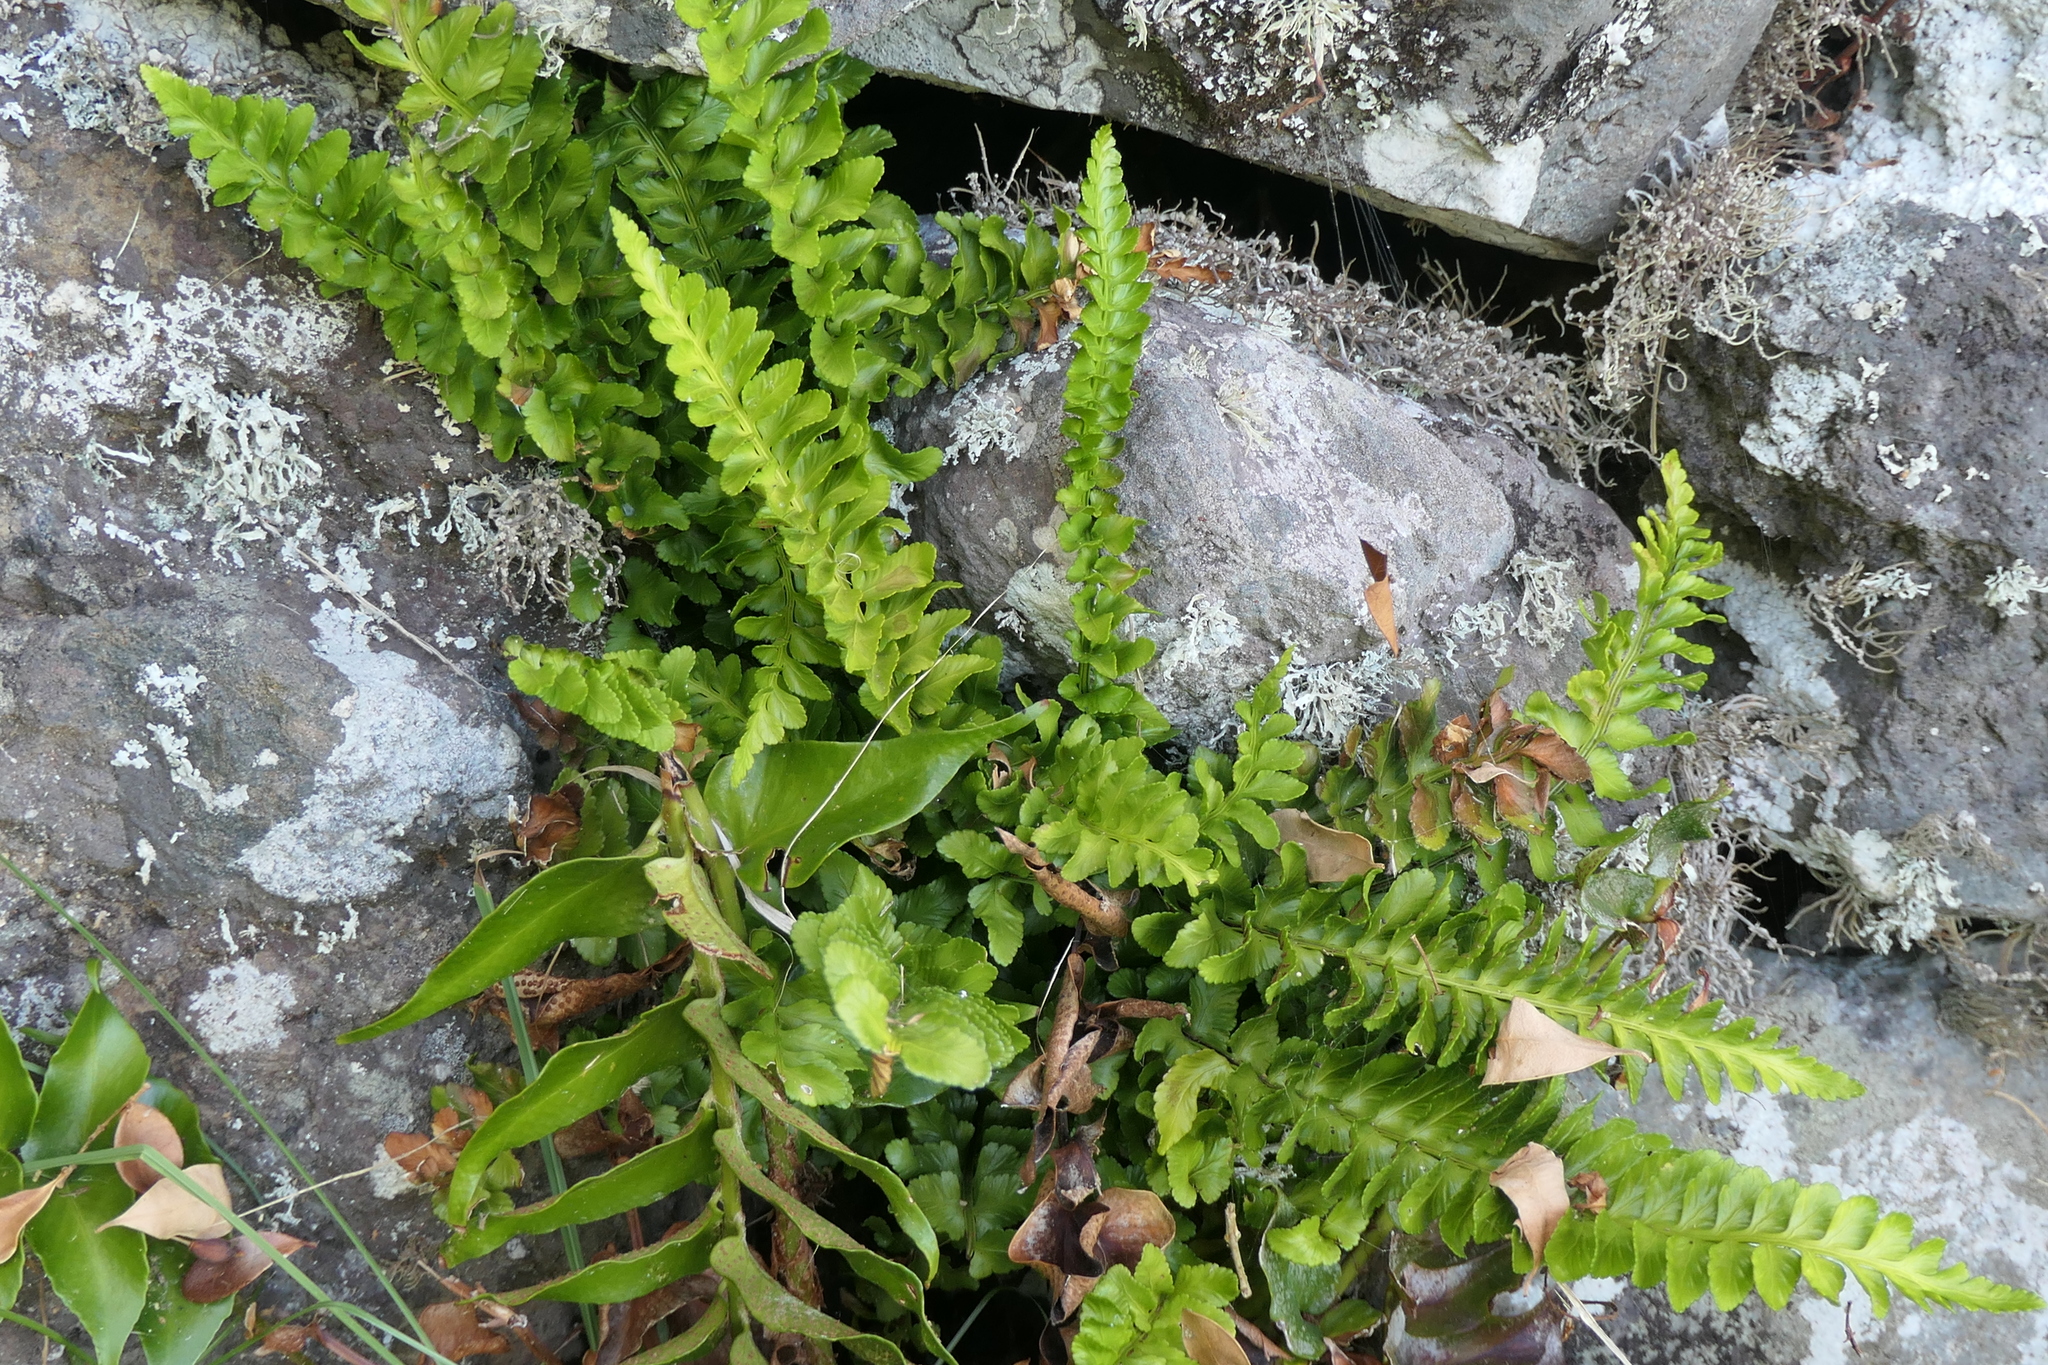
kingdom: Plantae
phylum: Tracheophyta
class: Polypodiopsida
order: Polypodiales
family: Aspleniaceae
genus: Asplenium
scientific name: Asplenium marinum
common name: Sea spleenwort
